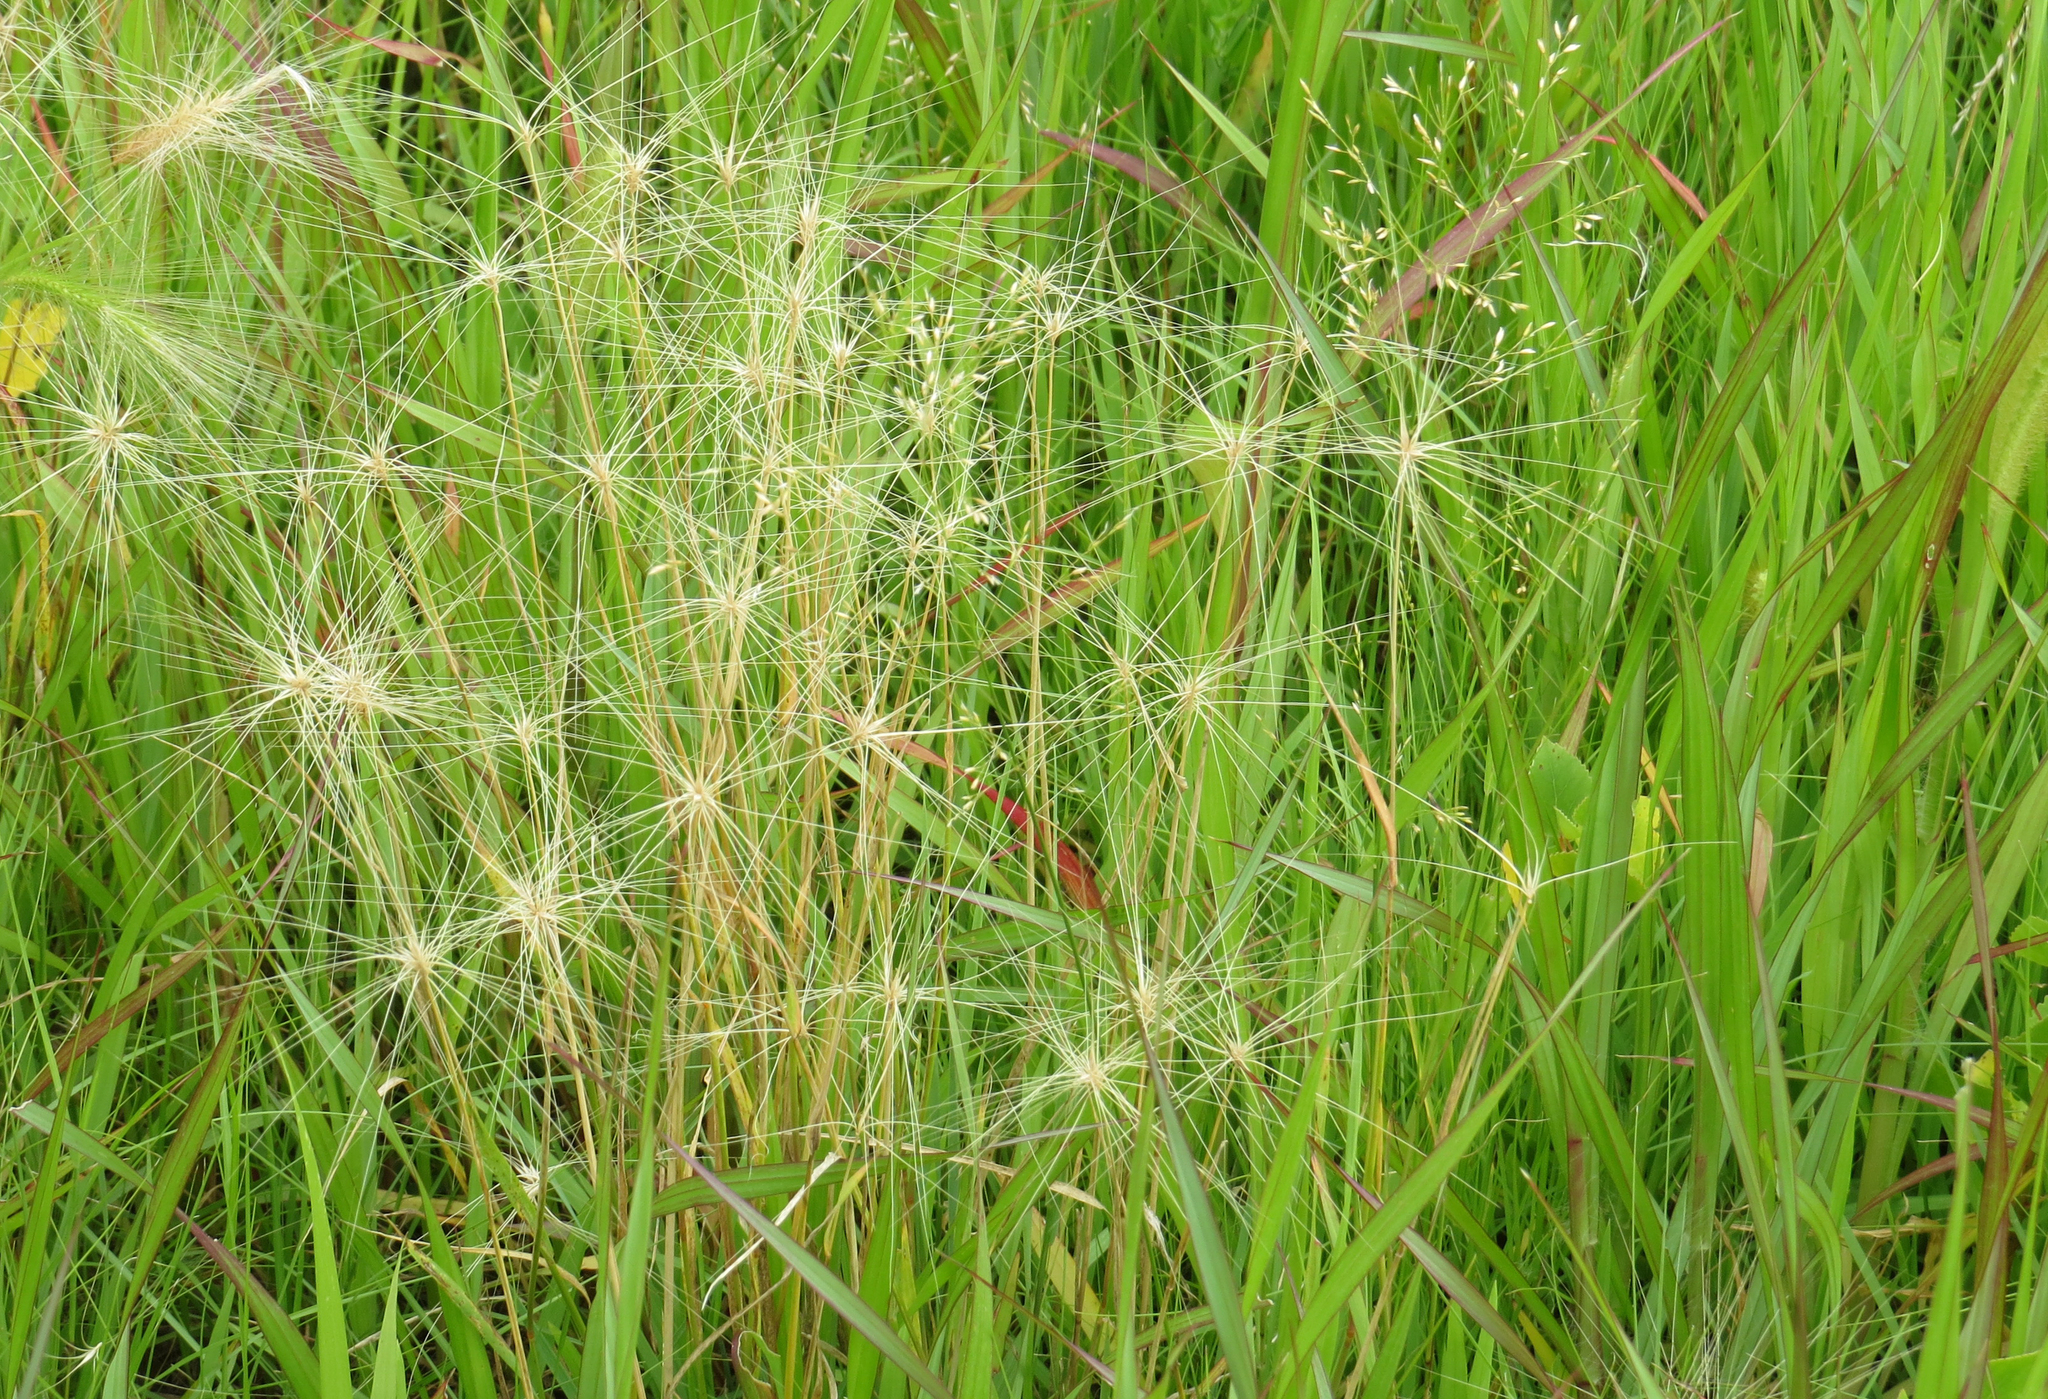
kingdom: Plantae
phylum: Tracheophyta
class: Liliopsida
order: Poales
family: Poaceae
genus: Hordeum
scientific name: Hordeum jubatum
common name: Foxtail barley
